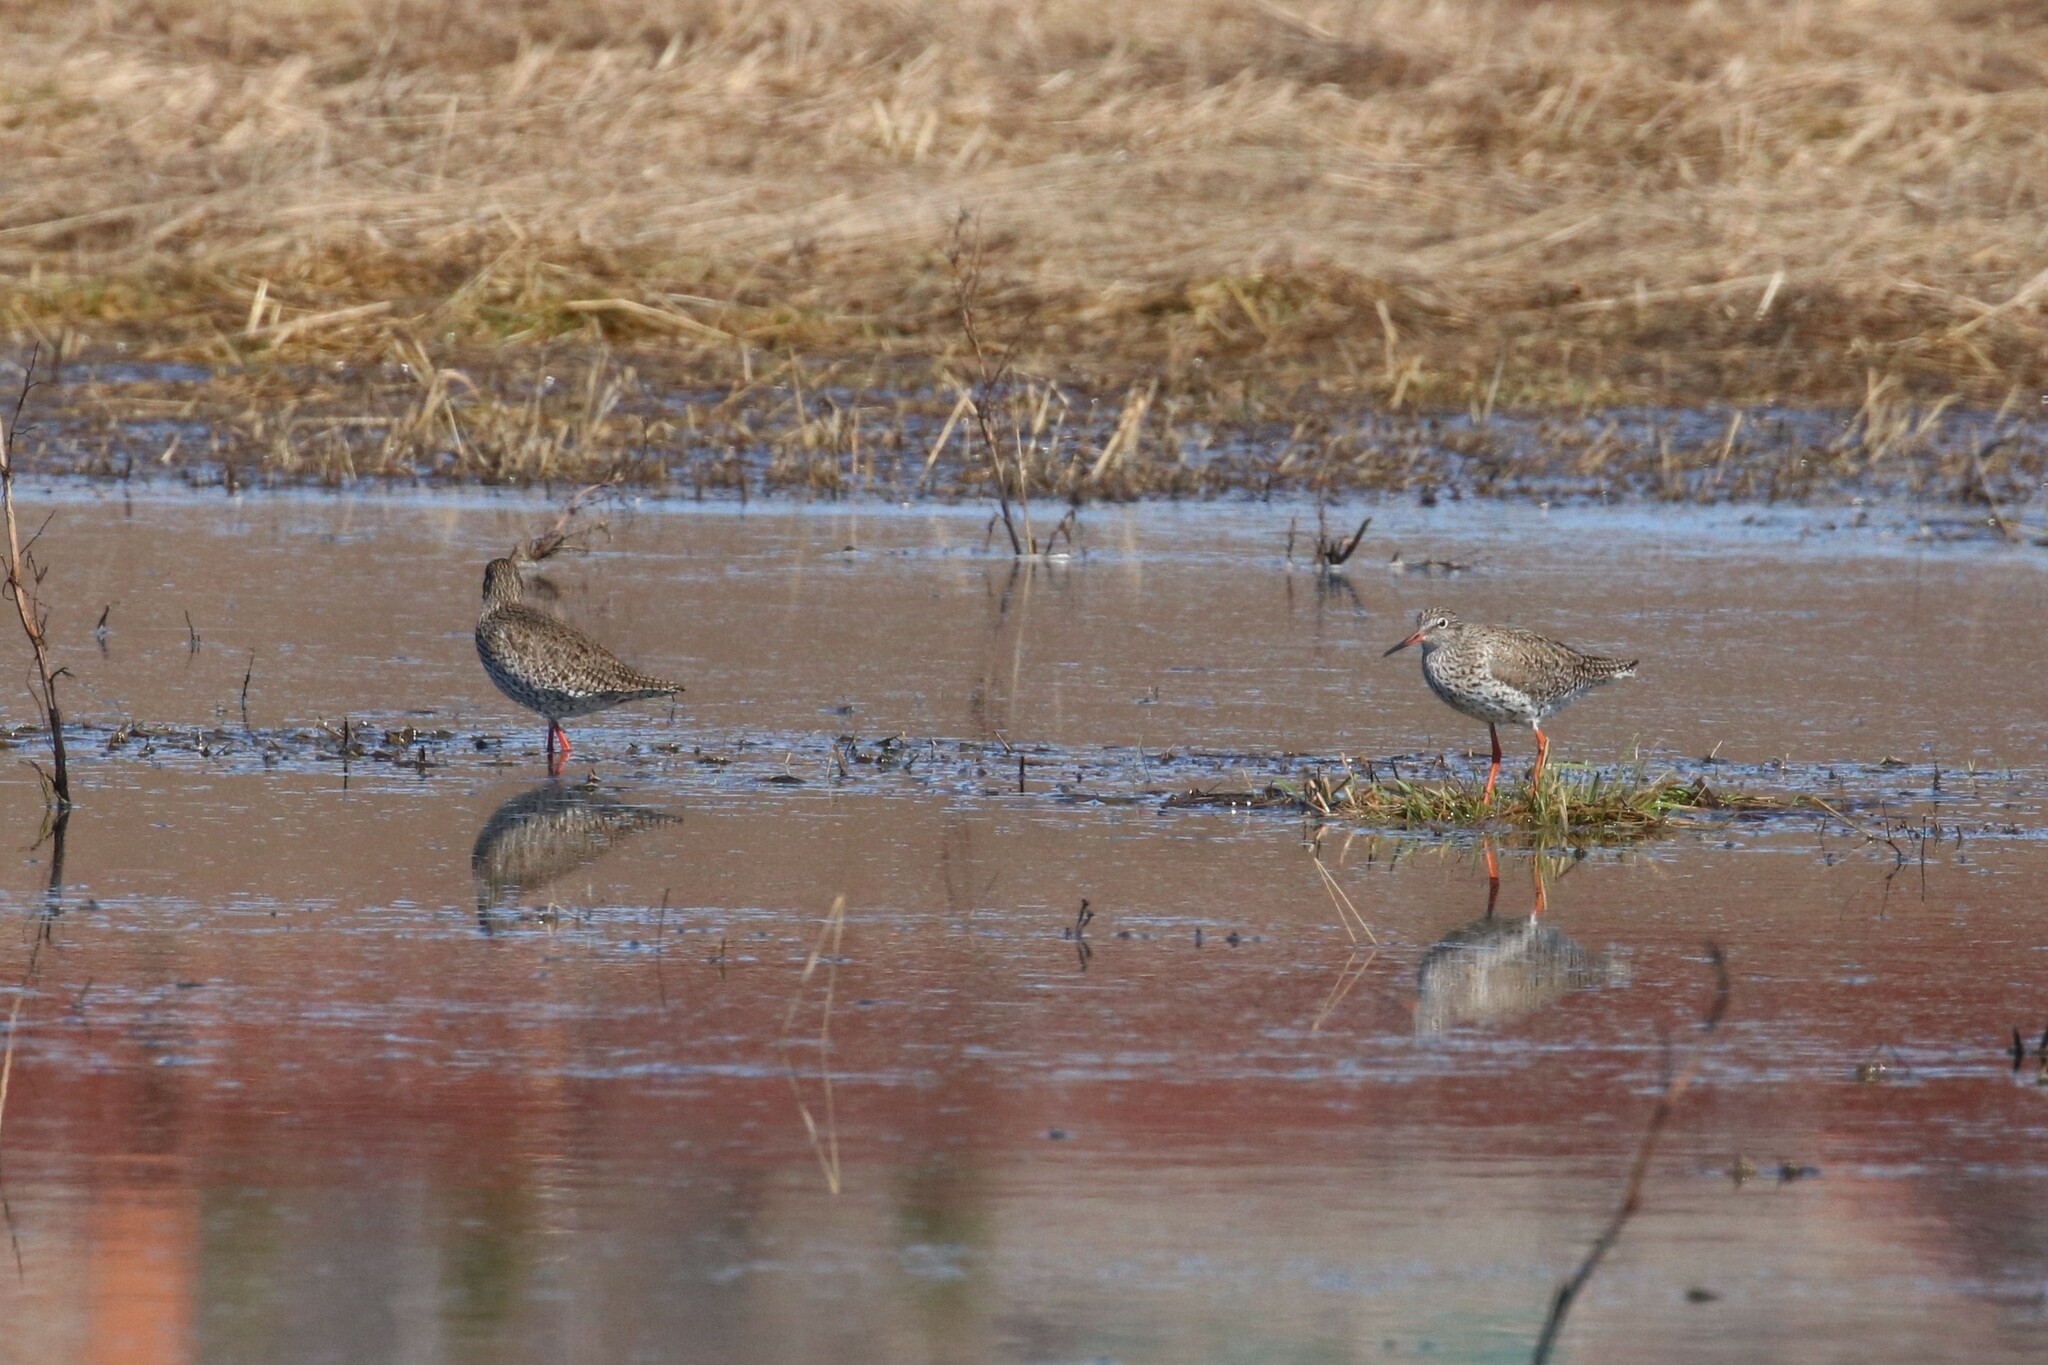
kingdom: Animalia
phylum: Chordata
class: Aves
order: Charadriiformes
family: Scolopacidae
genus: Tringa
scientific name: Tringa totanus
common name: Common redshank
